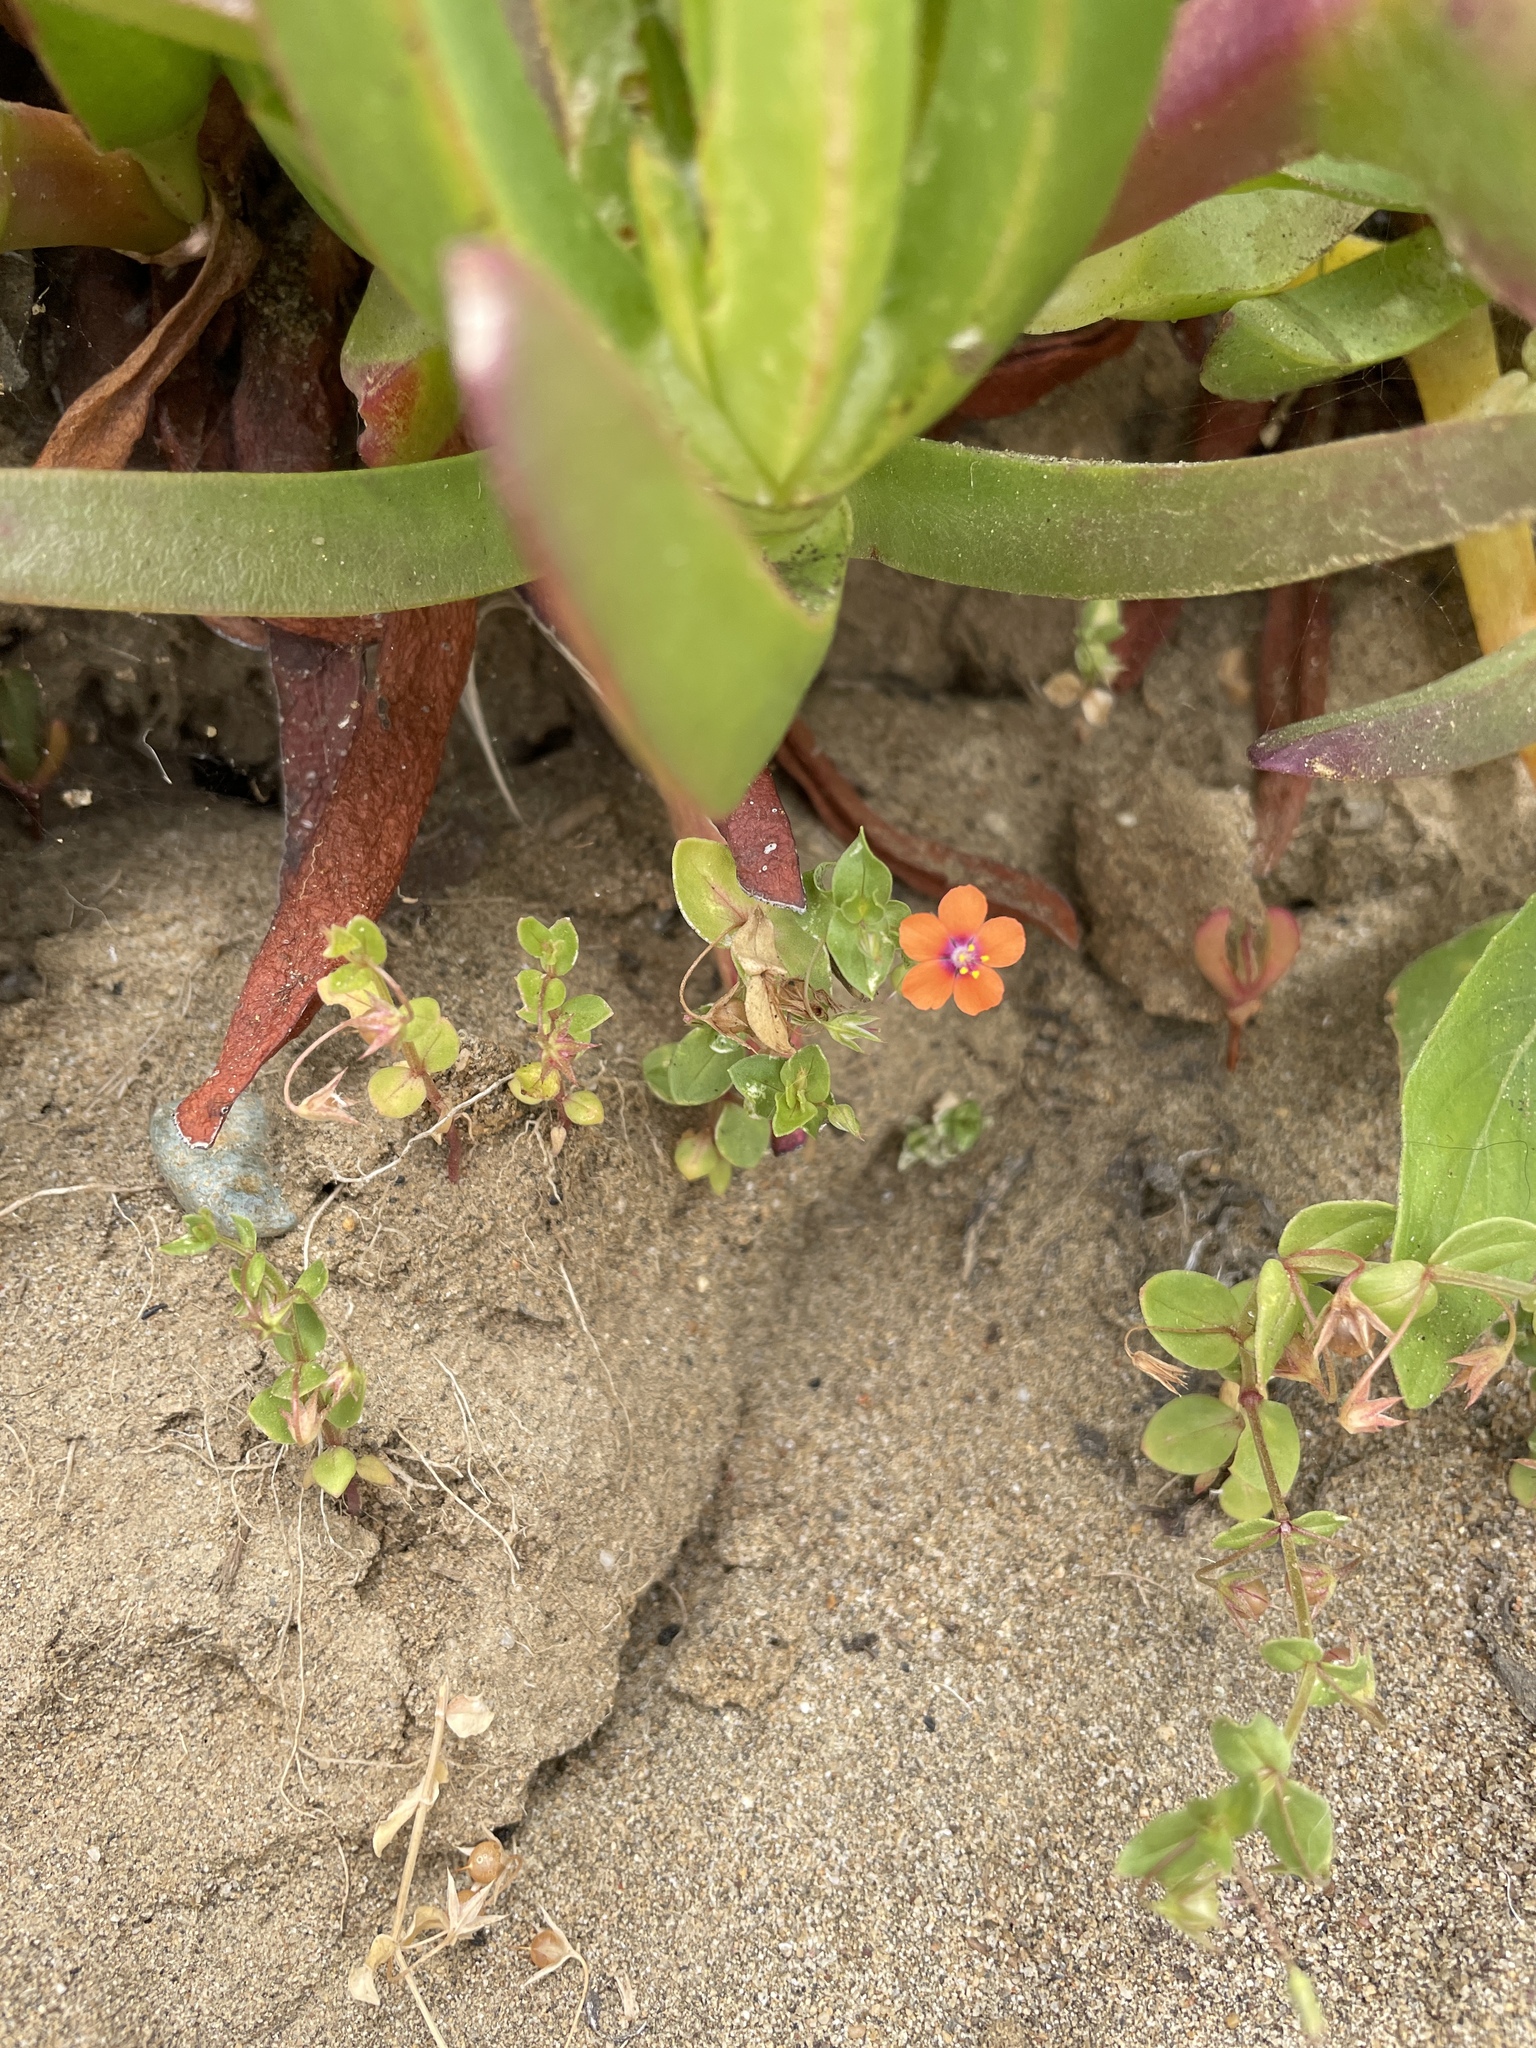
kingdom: Plantae
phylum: Tracheophyta
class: Magnoliopsida
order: Ericales
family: Primulaceae
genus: Lysimachia
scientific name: Lysimachia arvensis
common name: Scarlet pimpernel
